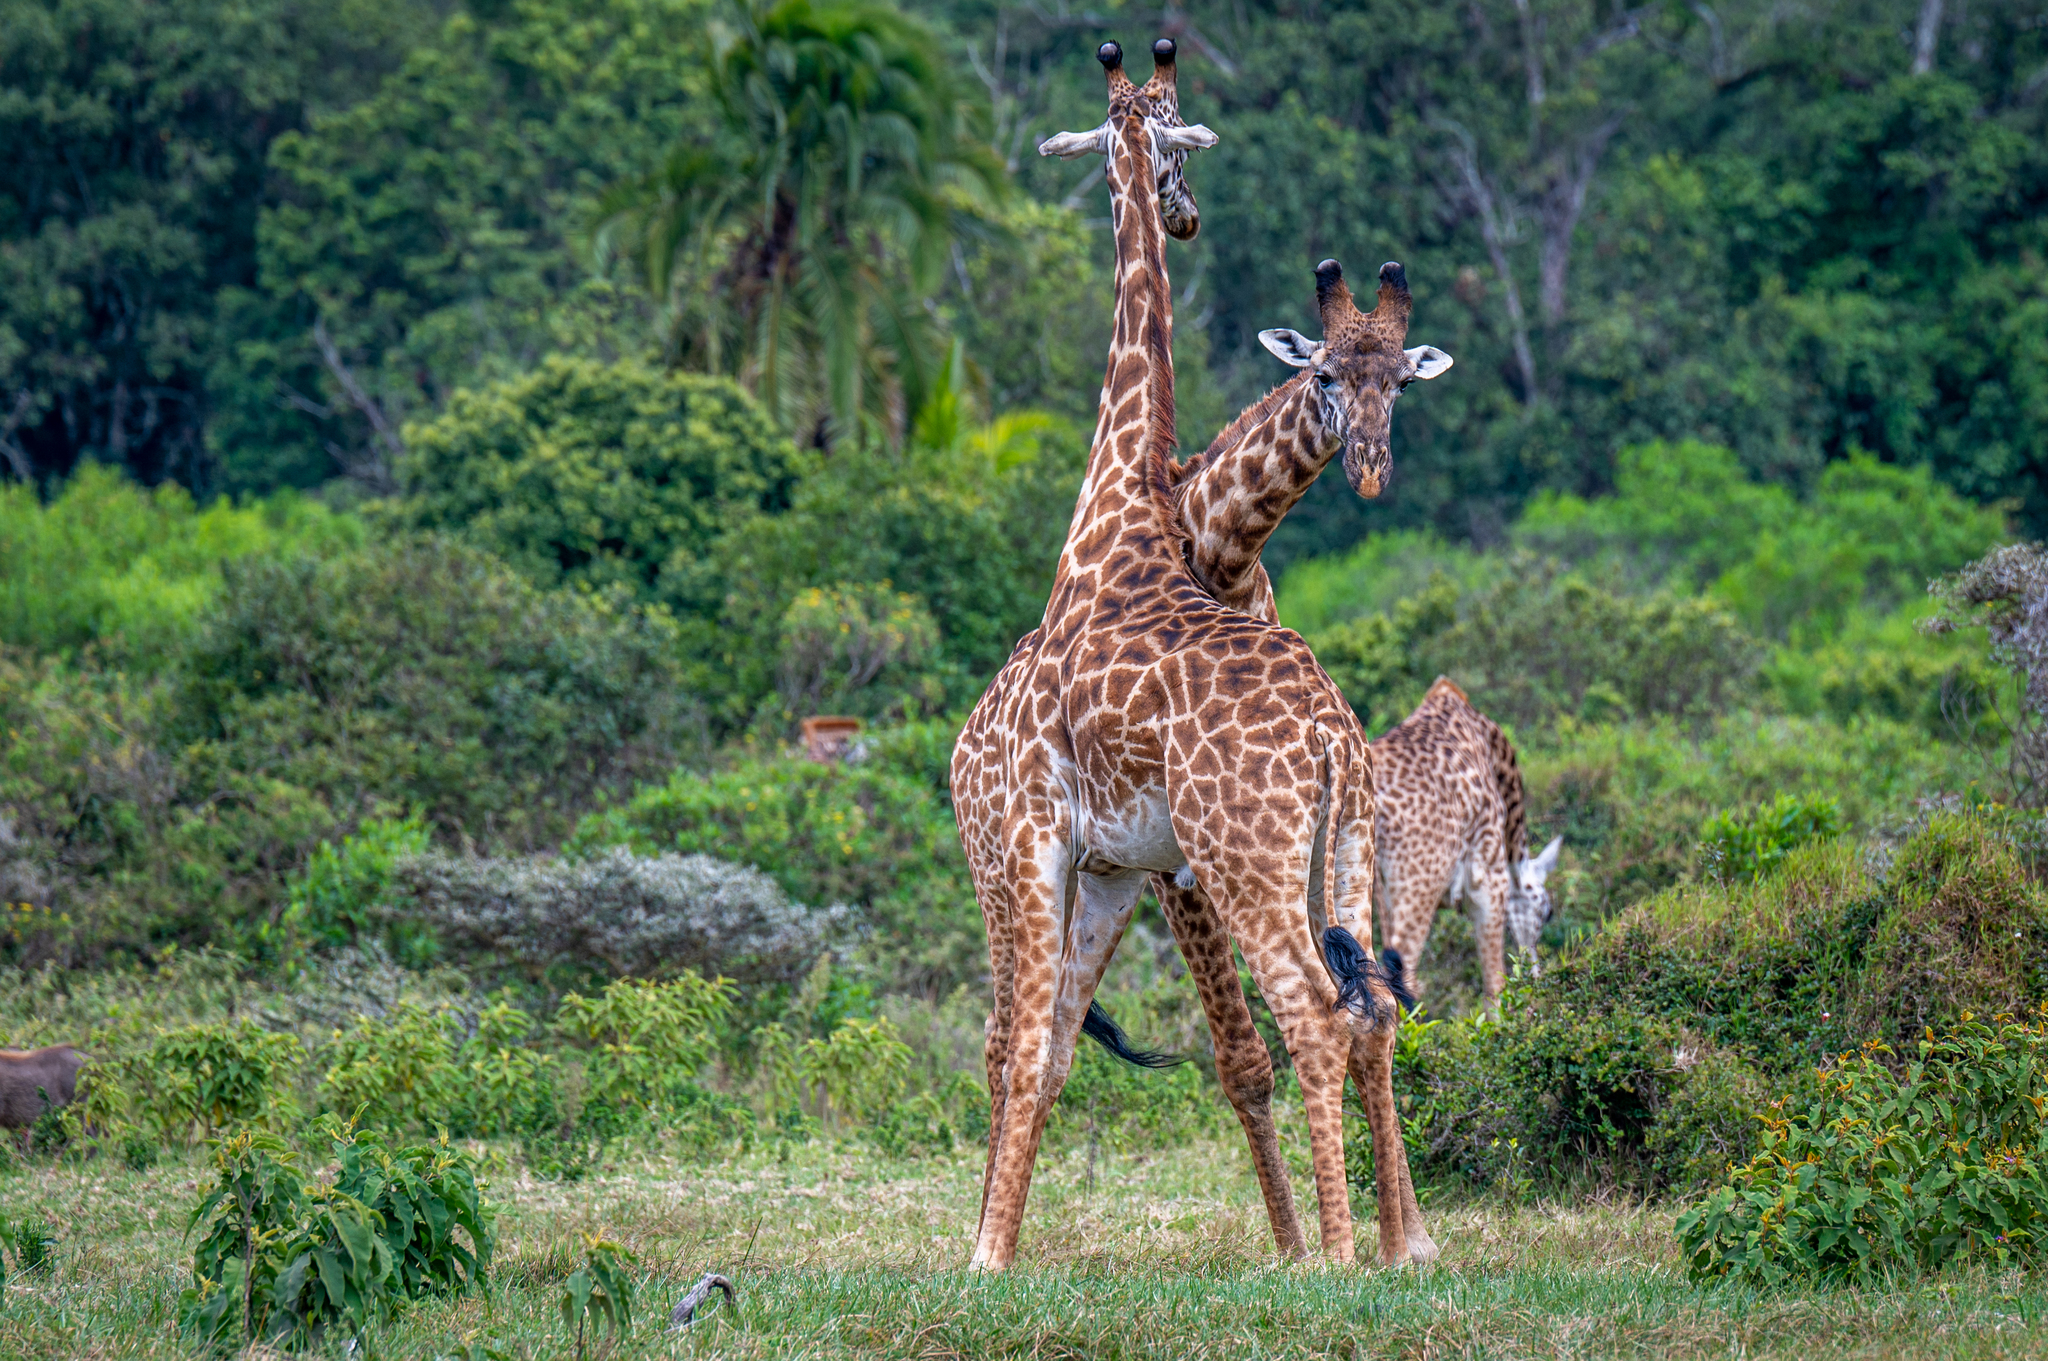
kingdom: Animalia
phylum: Chordata
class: Mammalia
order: Artiodactyla
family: Giraffidae
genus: Giraffa
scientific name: Giraffa tippelskirchi
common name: Masai giraffe
